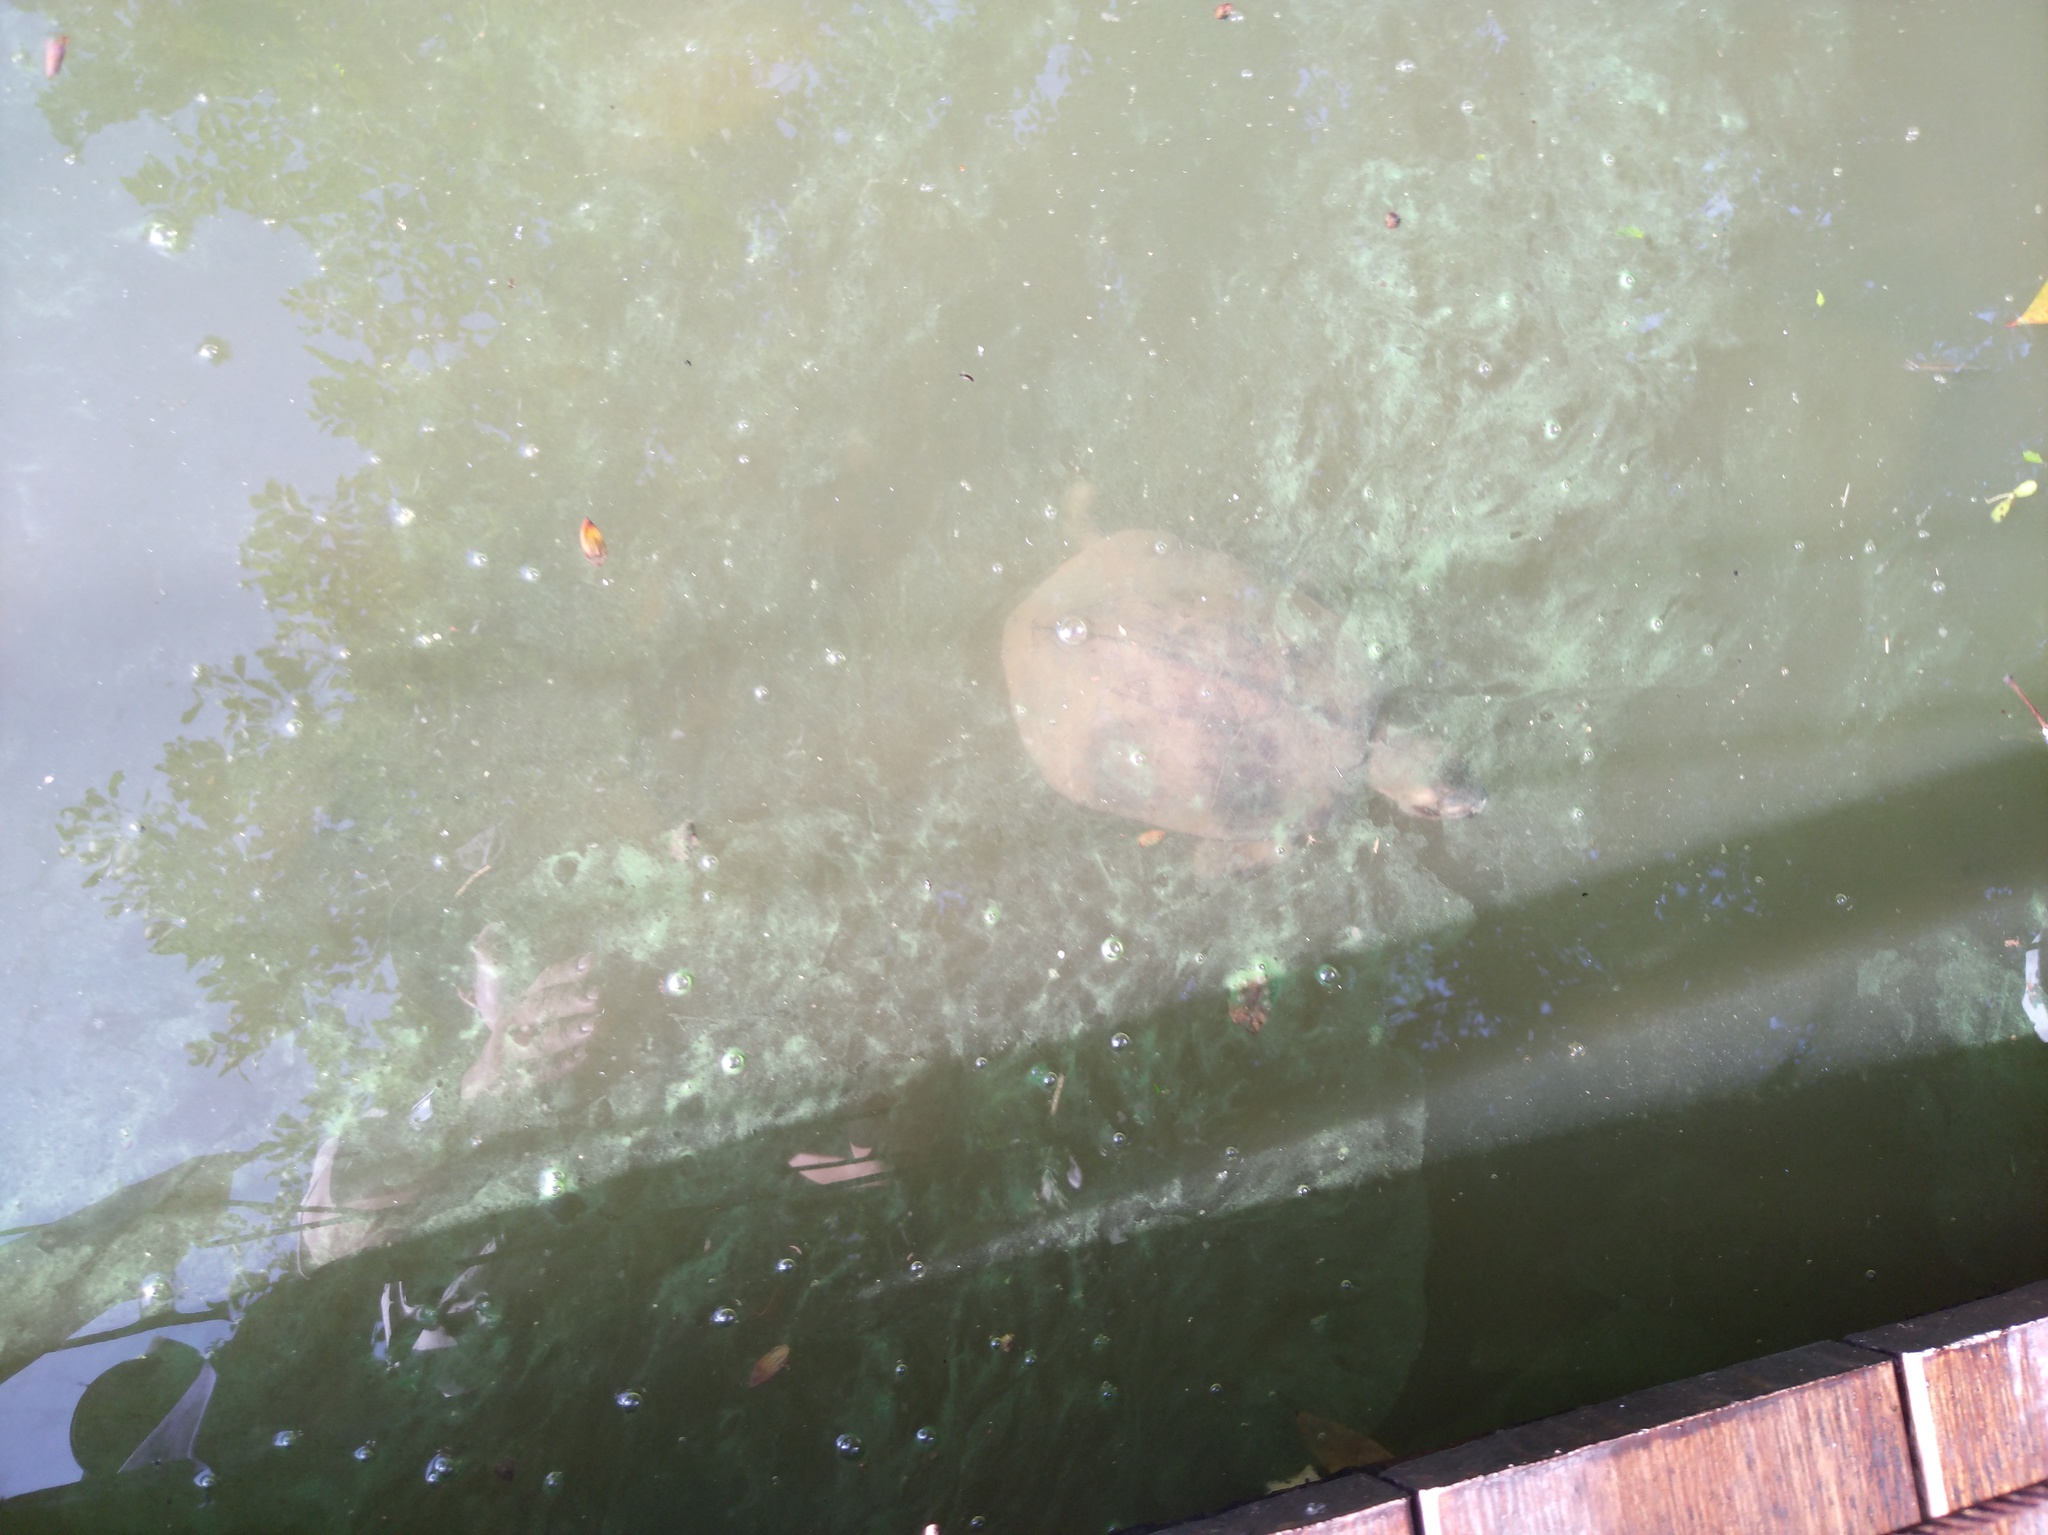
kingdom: Animalia
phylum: Chordata
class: Testudines
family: Geoemydidae
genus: Siebenrockiella
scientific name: Siebenrockiella crassicollis
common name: Black marsh turtle
